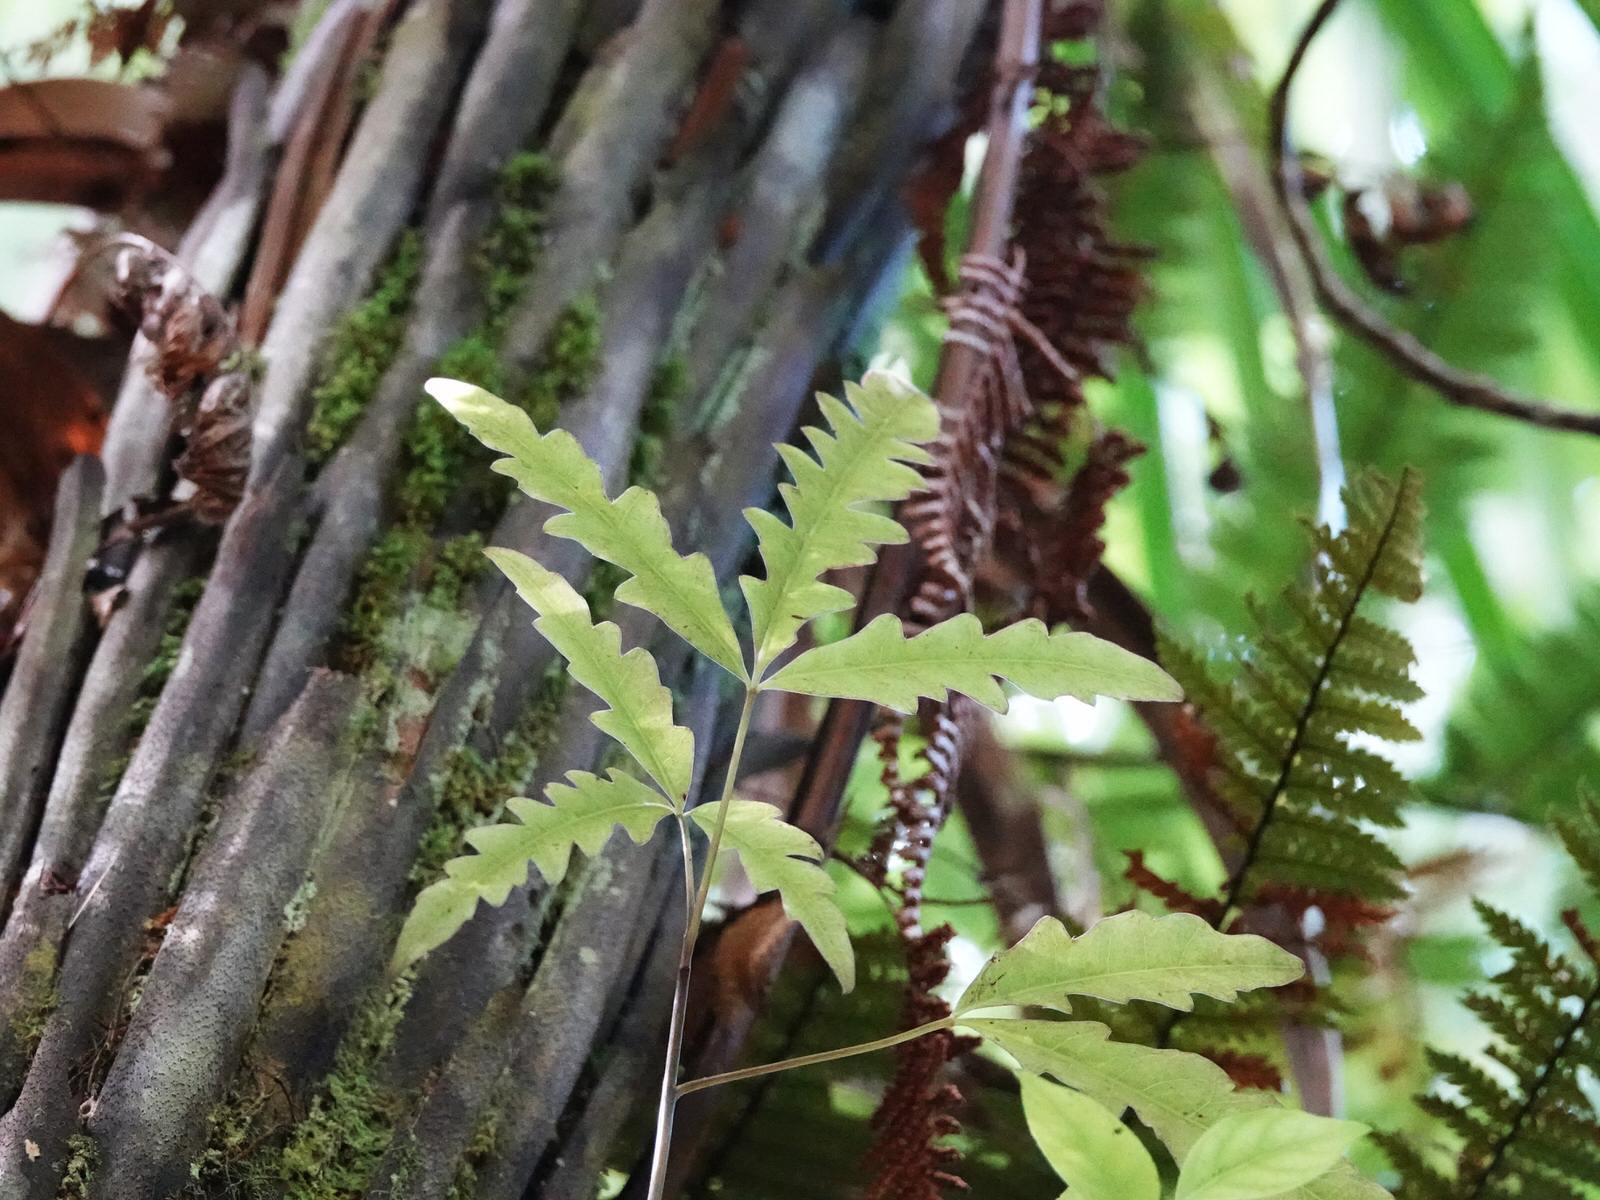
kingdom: Plantae
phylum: Tracheophyta
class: Magnoliopsida
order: Apiales
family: Araliaceae
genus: Raukaua
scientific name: Raukaua edgerleyi
